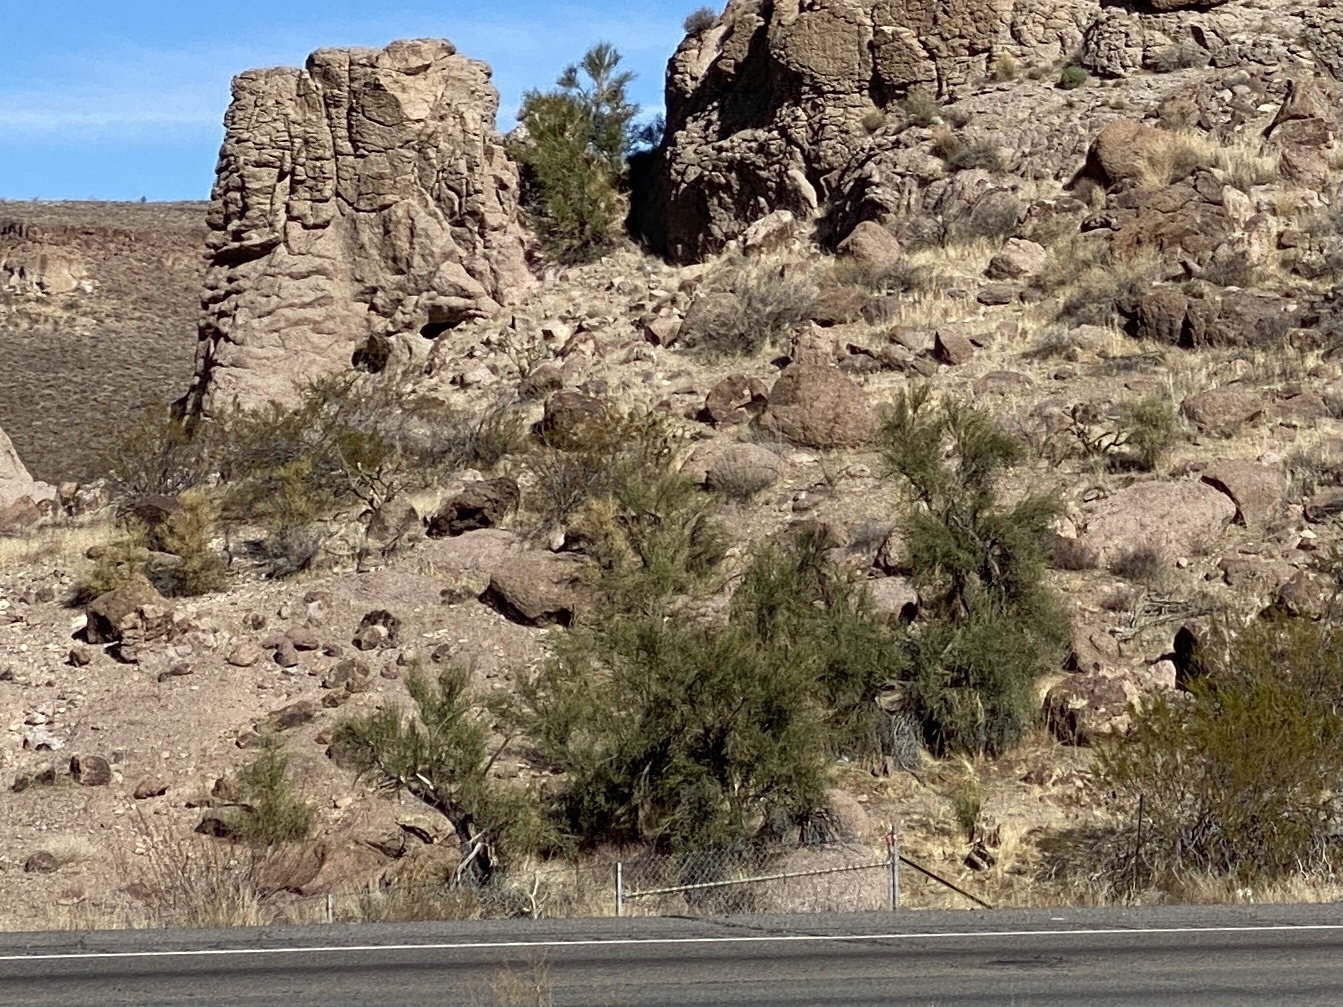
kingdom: Plantae
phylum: Tracheophyta
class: Magnoliopsida
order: Celastrales
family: Celastraceae
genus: Canotia
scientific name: Canotia holacantha
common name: Crucifixion thorns
